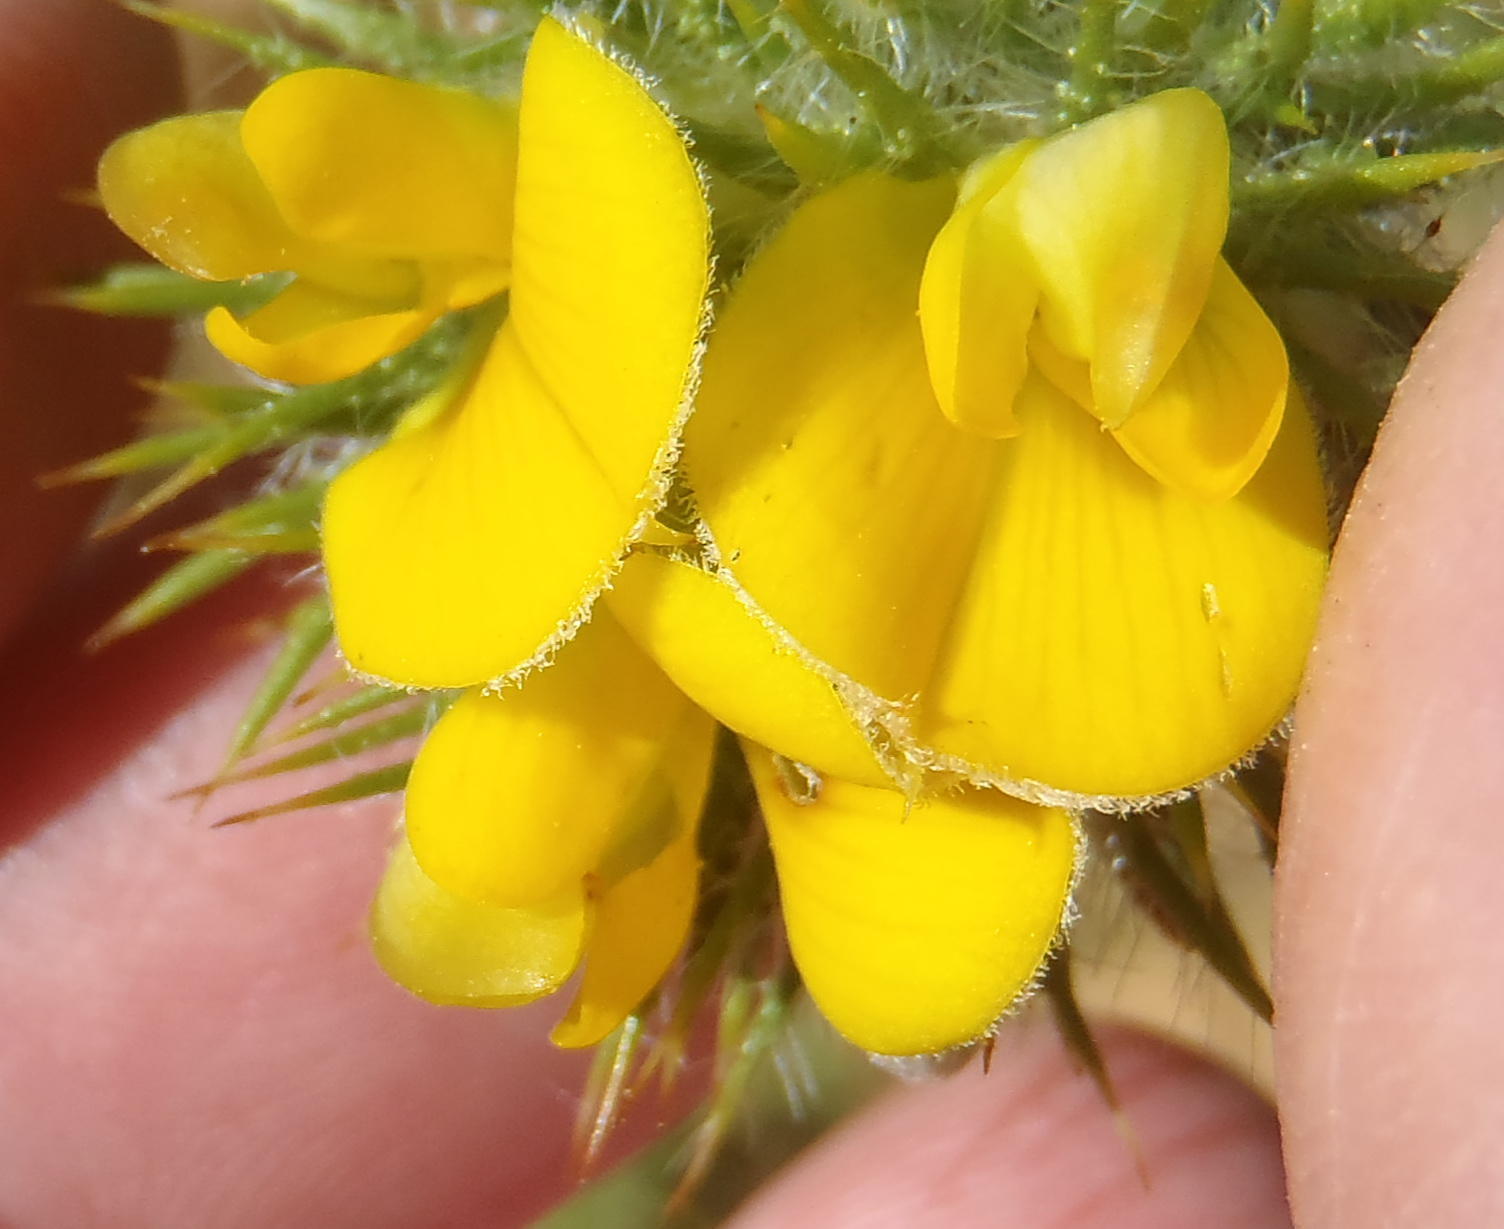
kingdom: Plantae
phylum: Tracheophyta
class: Magnoliopsida
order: Fabales
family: Fabaceae
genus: Aspalathus
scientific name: Aspalathus chenopoda
